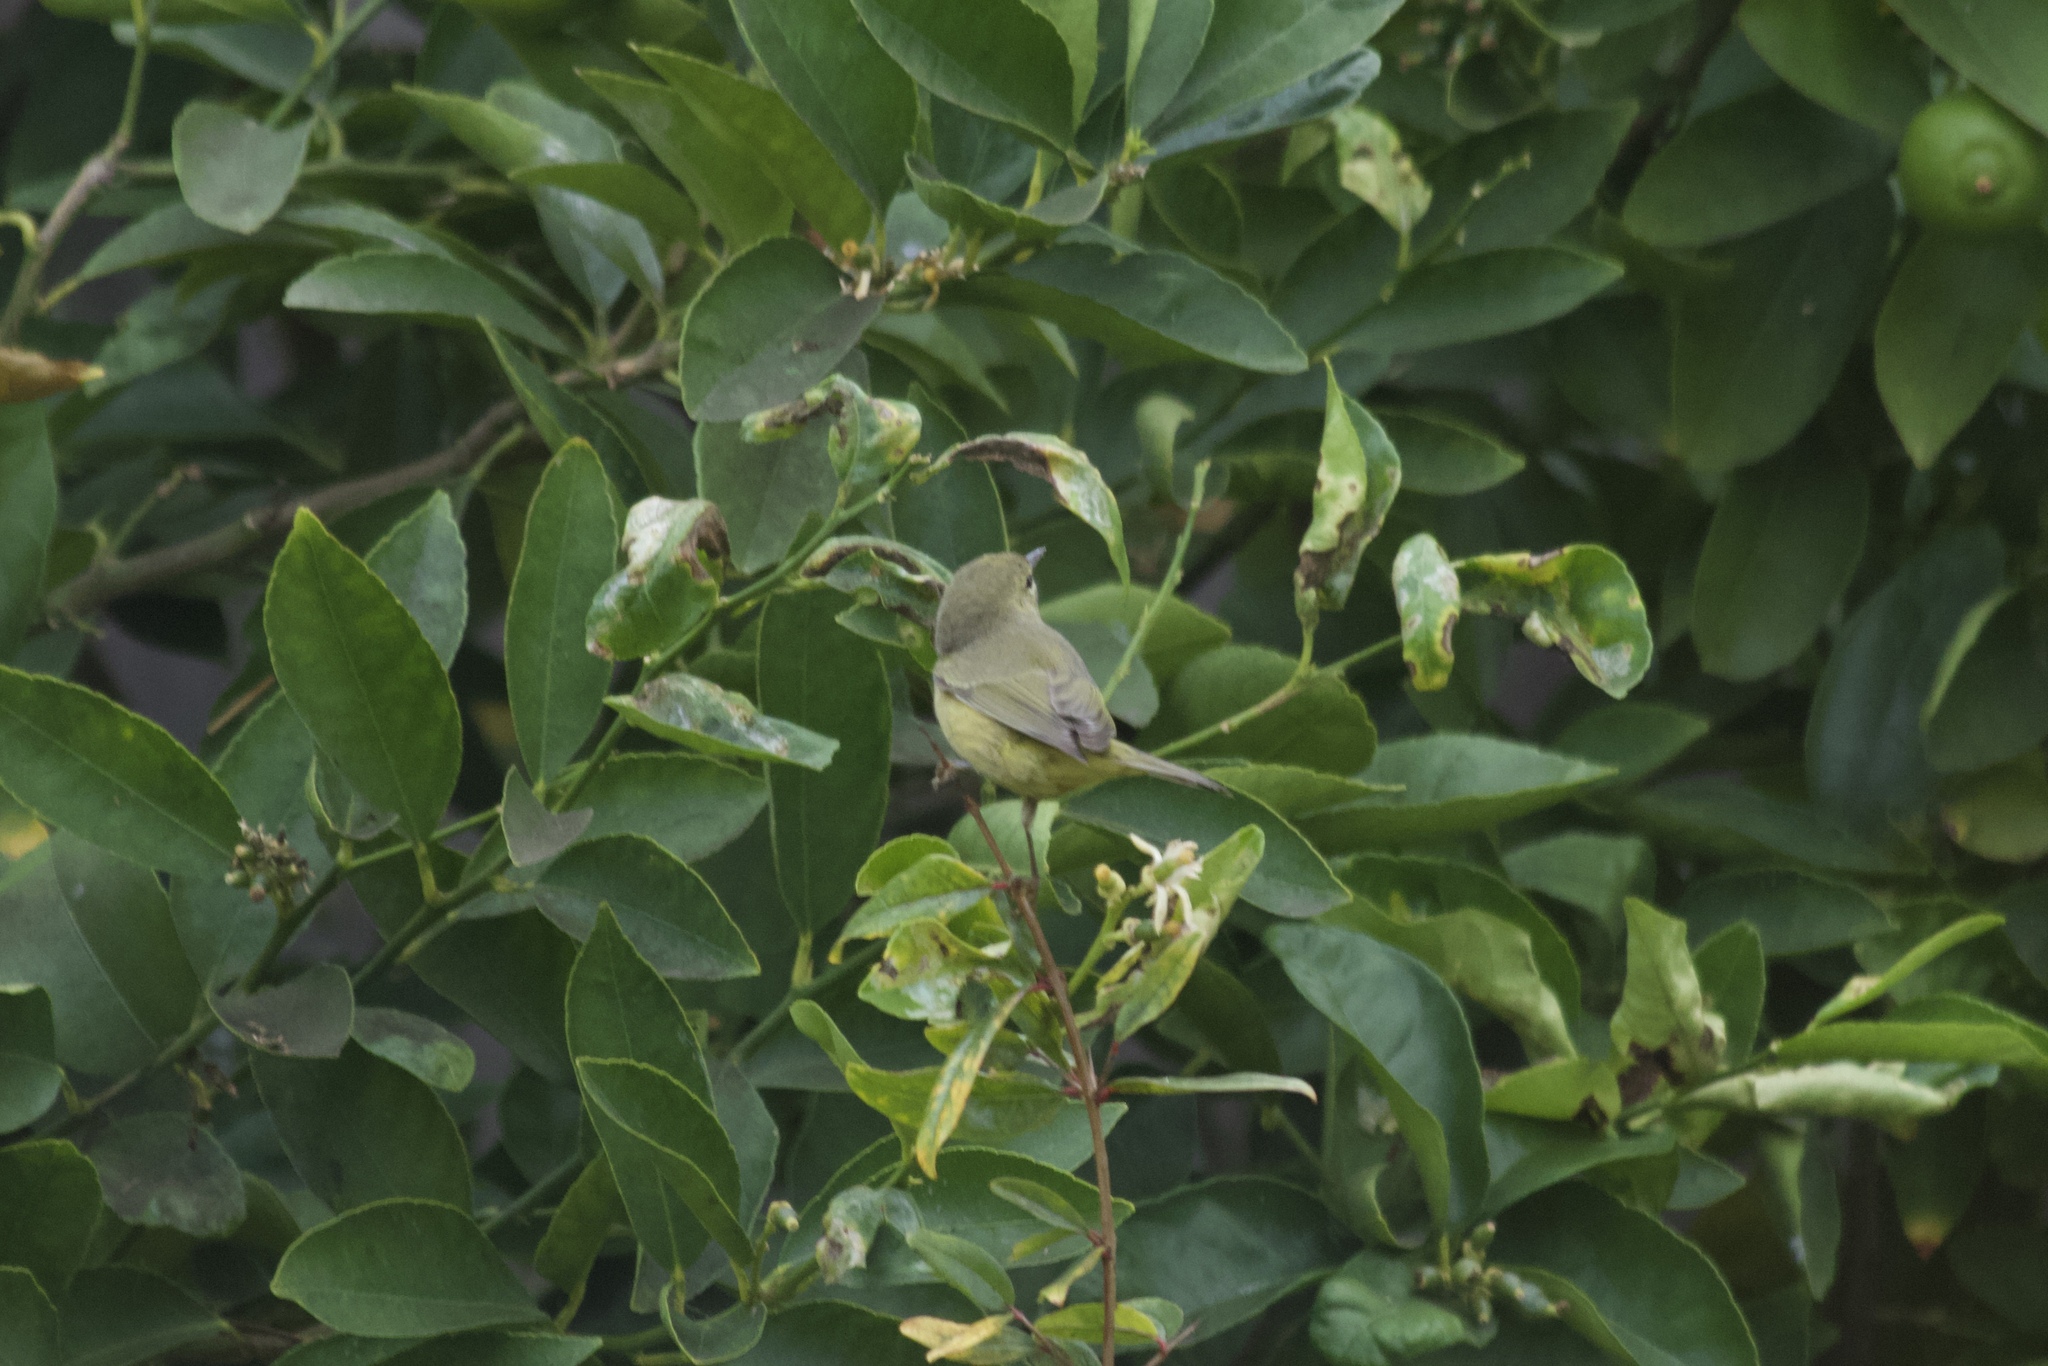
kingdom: Animalia
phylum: Chordata
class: Aves
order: Passeriformes
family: Parulidae
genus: Leiothlypis
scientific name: Leiothlypis celata
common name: Orange-crowned warbler
